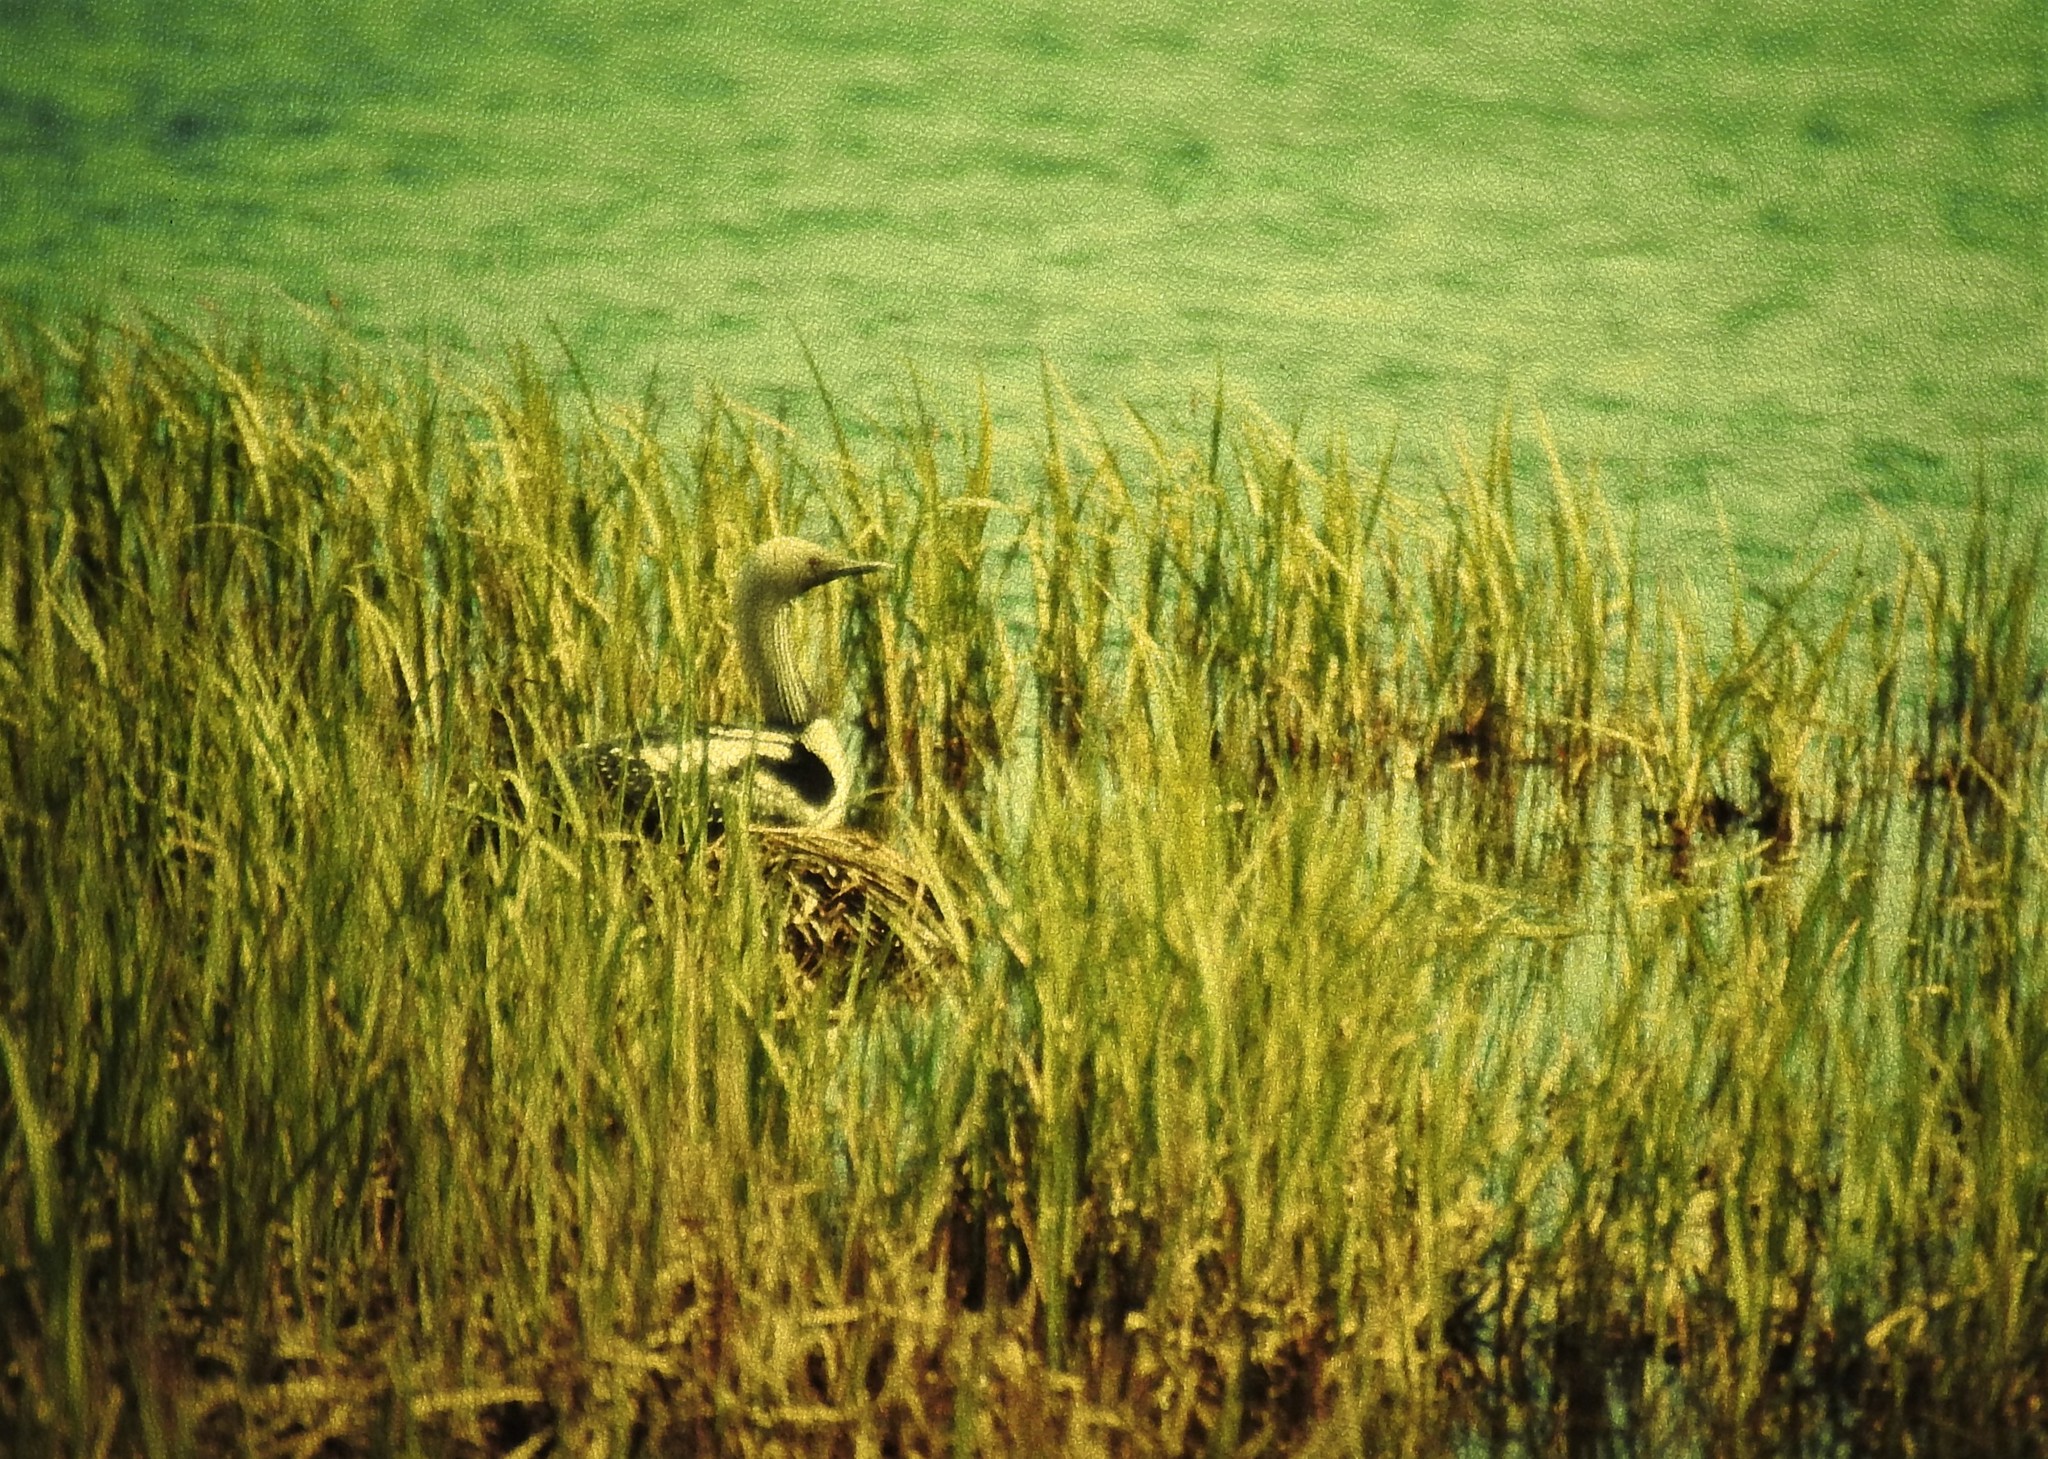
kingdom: Animalia
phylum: Chordata
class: Aves
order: Gaviiformes
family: Gaviidae
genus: Gavia
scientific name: Gavia pacifica
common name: Pacific loon
